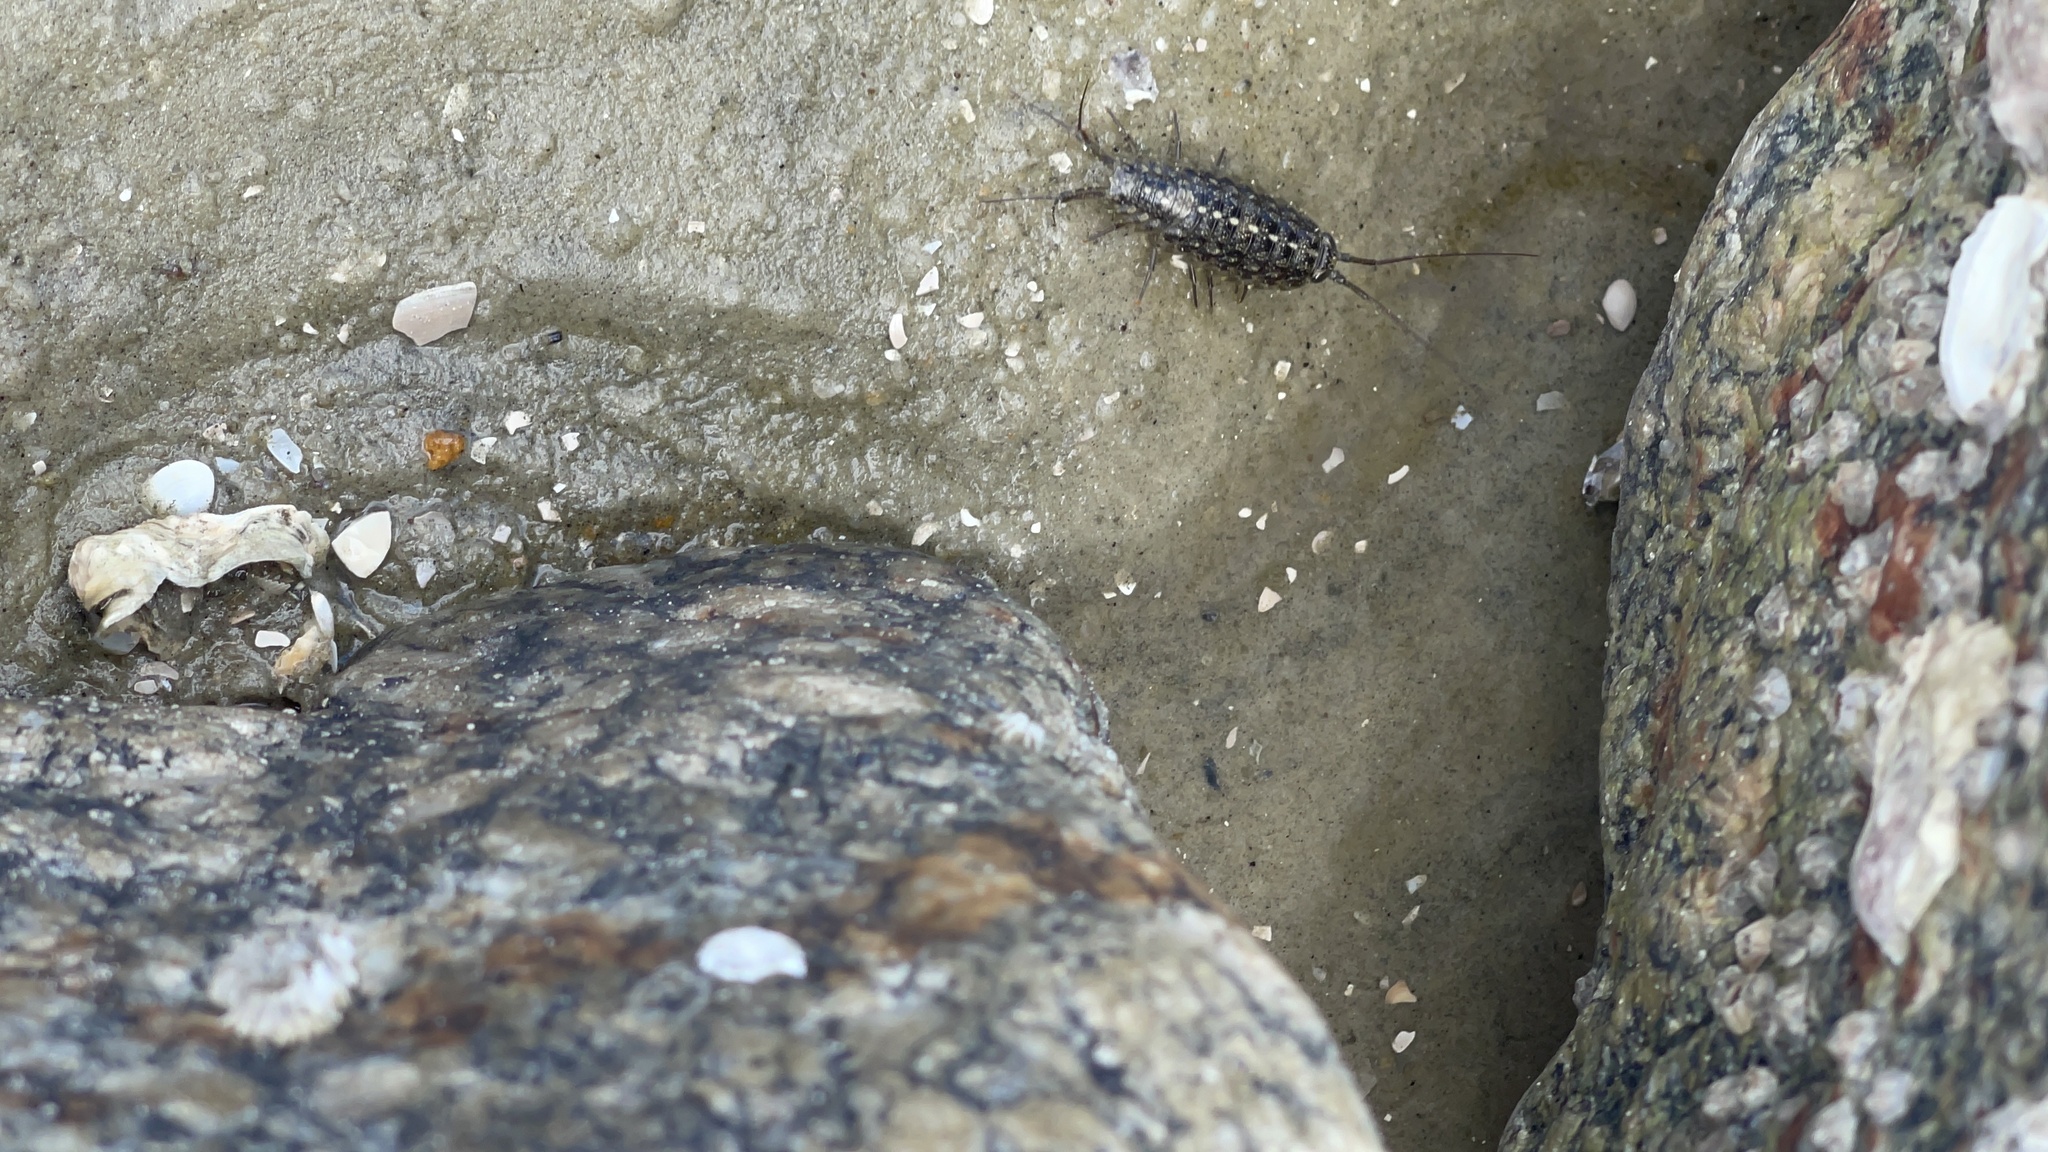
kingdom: Animalia
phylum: Arthropoda
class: Malacostraca
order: Isopoda
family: Ligiidae
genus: Ligia
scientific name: Ligia exotica
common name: Wharf roach
